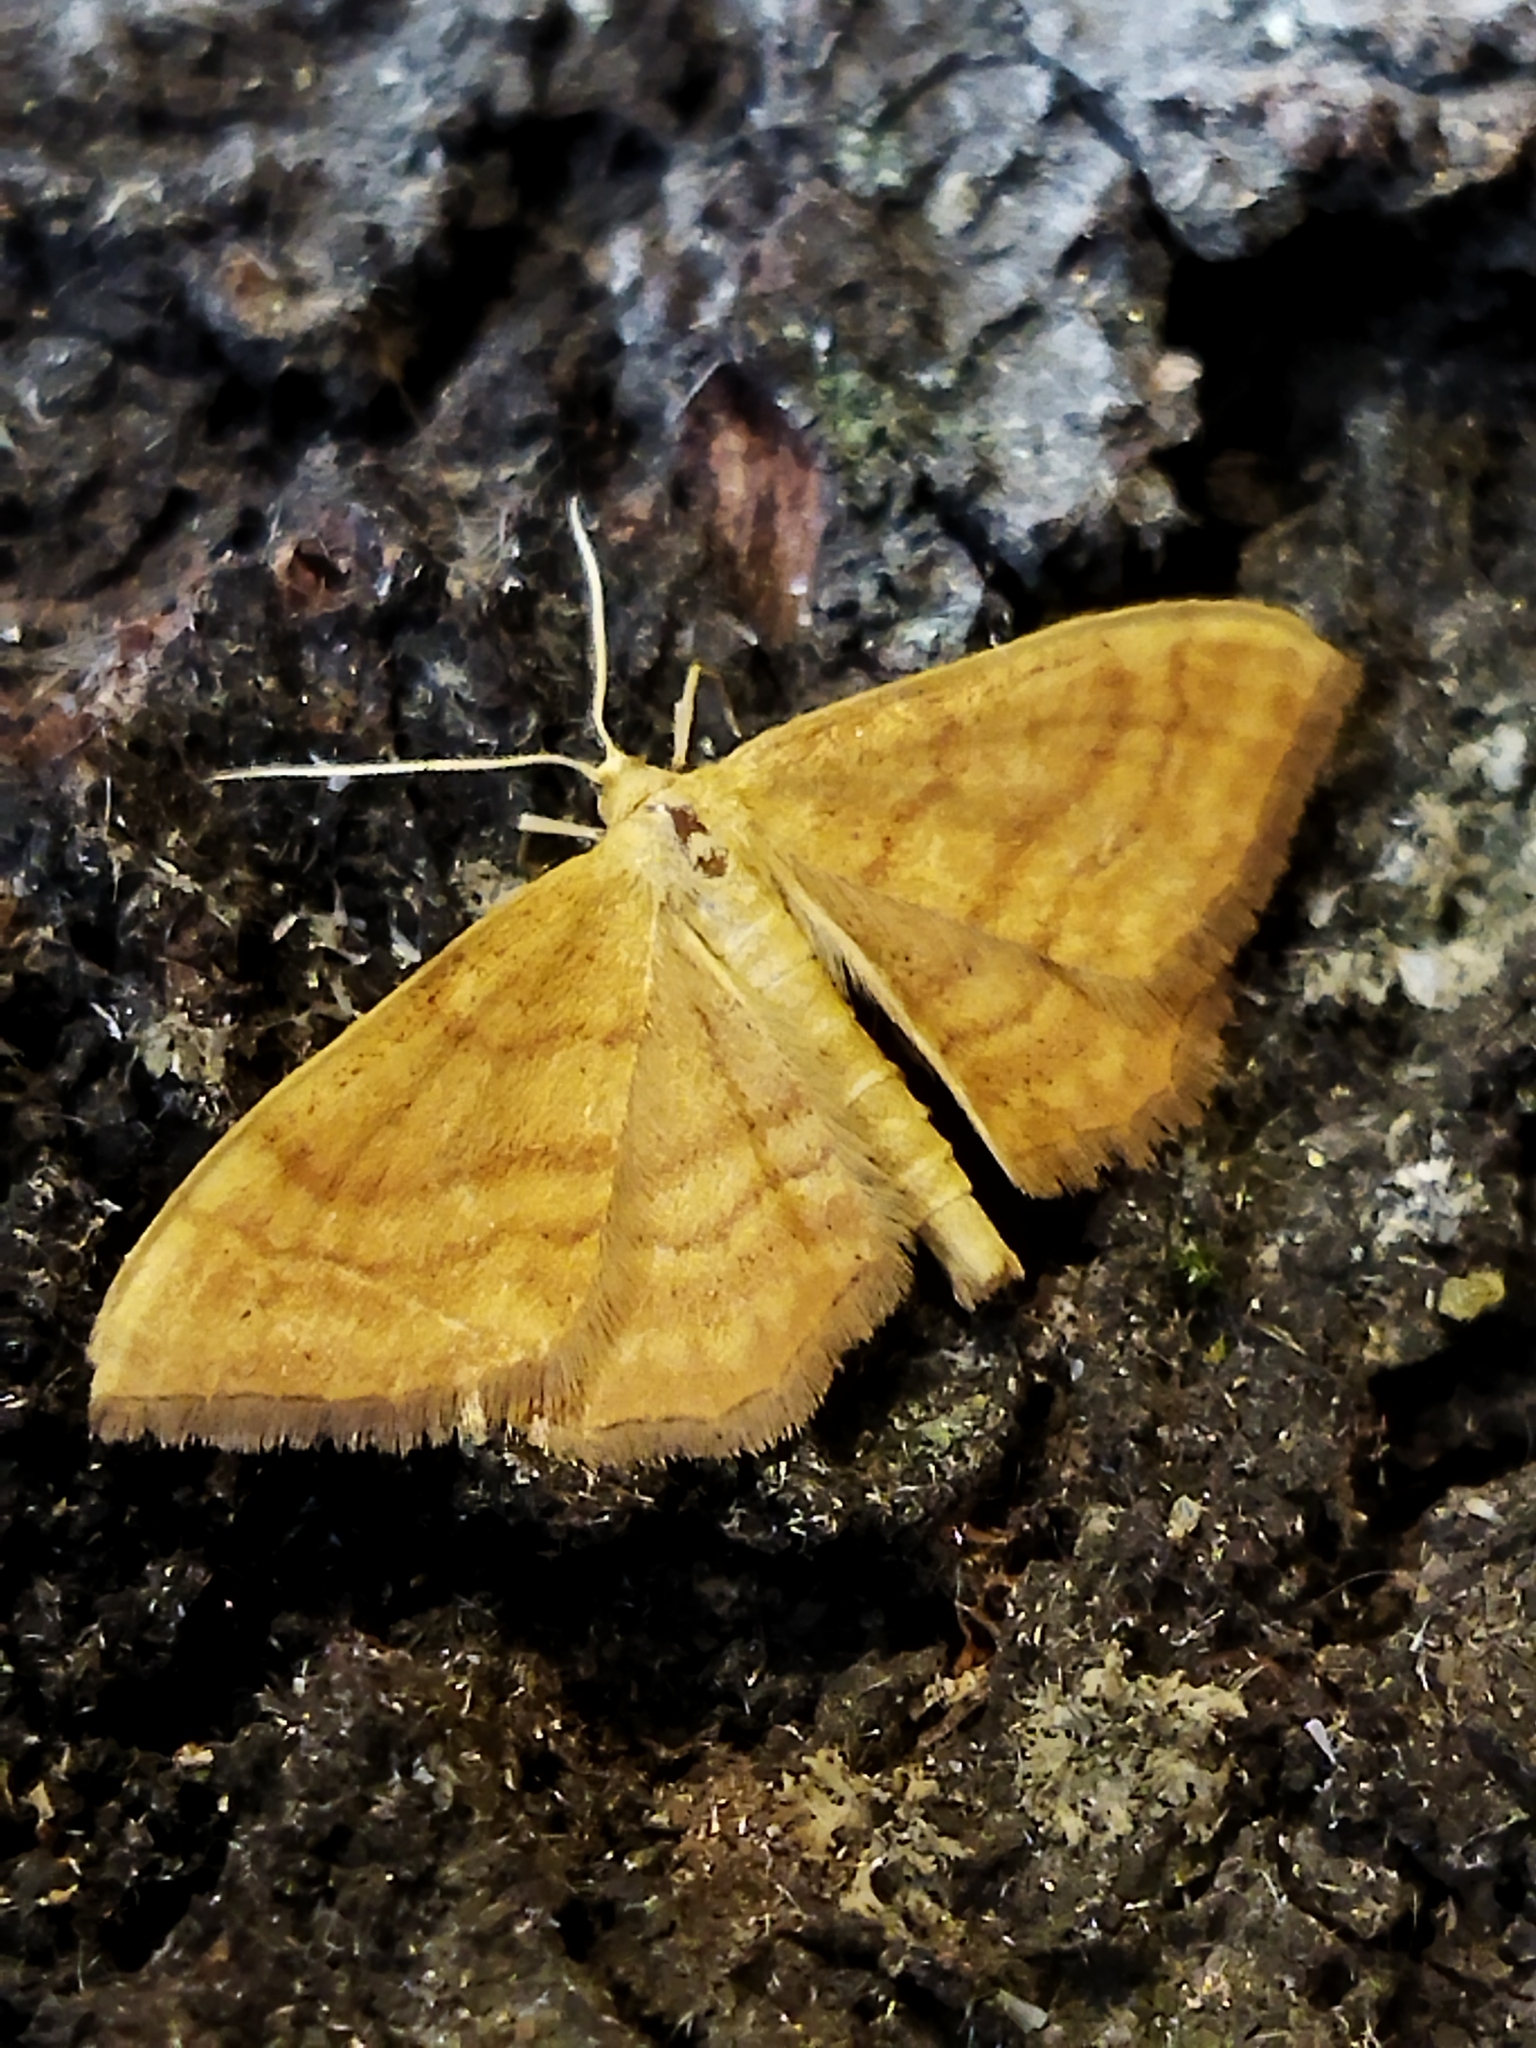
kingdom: Animalia
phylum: Arthropoda
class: Insecta
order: Lepidoptera
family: Geometridae
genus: Idaea
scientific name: Idaea ochrata
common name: Bright wave
